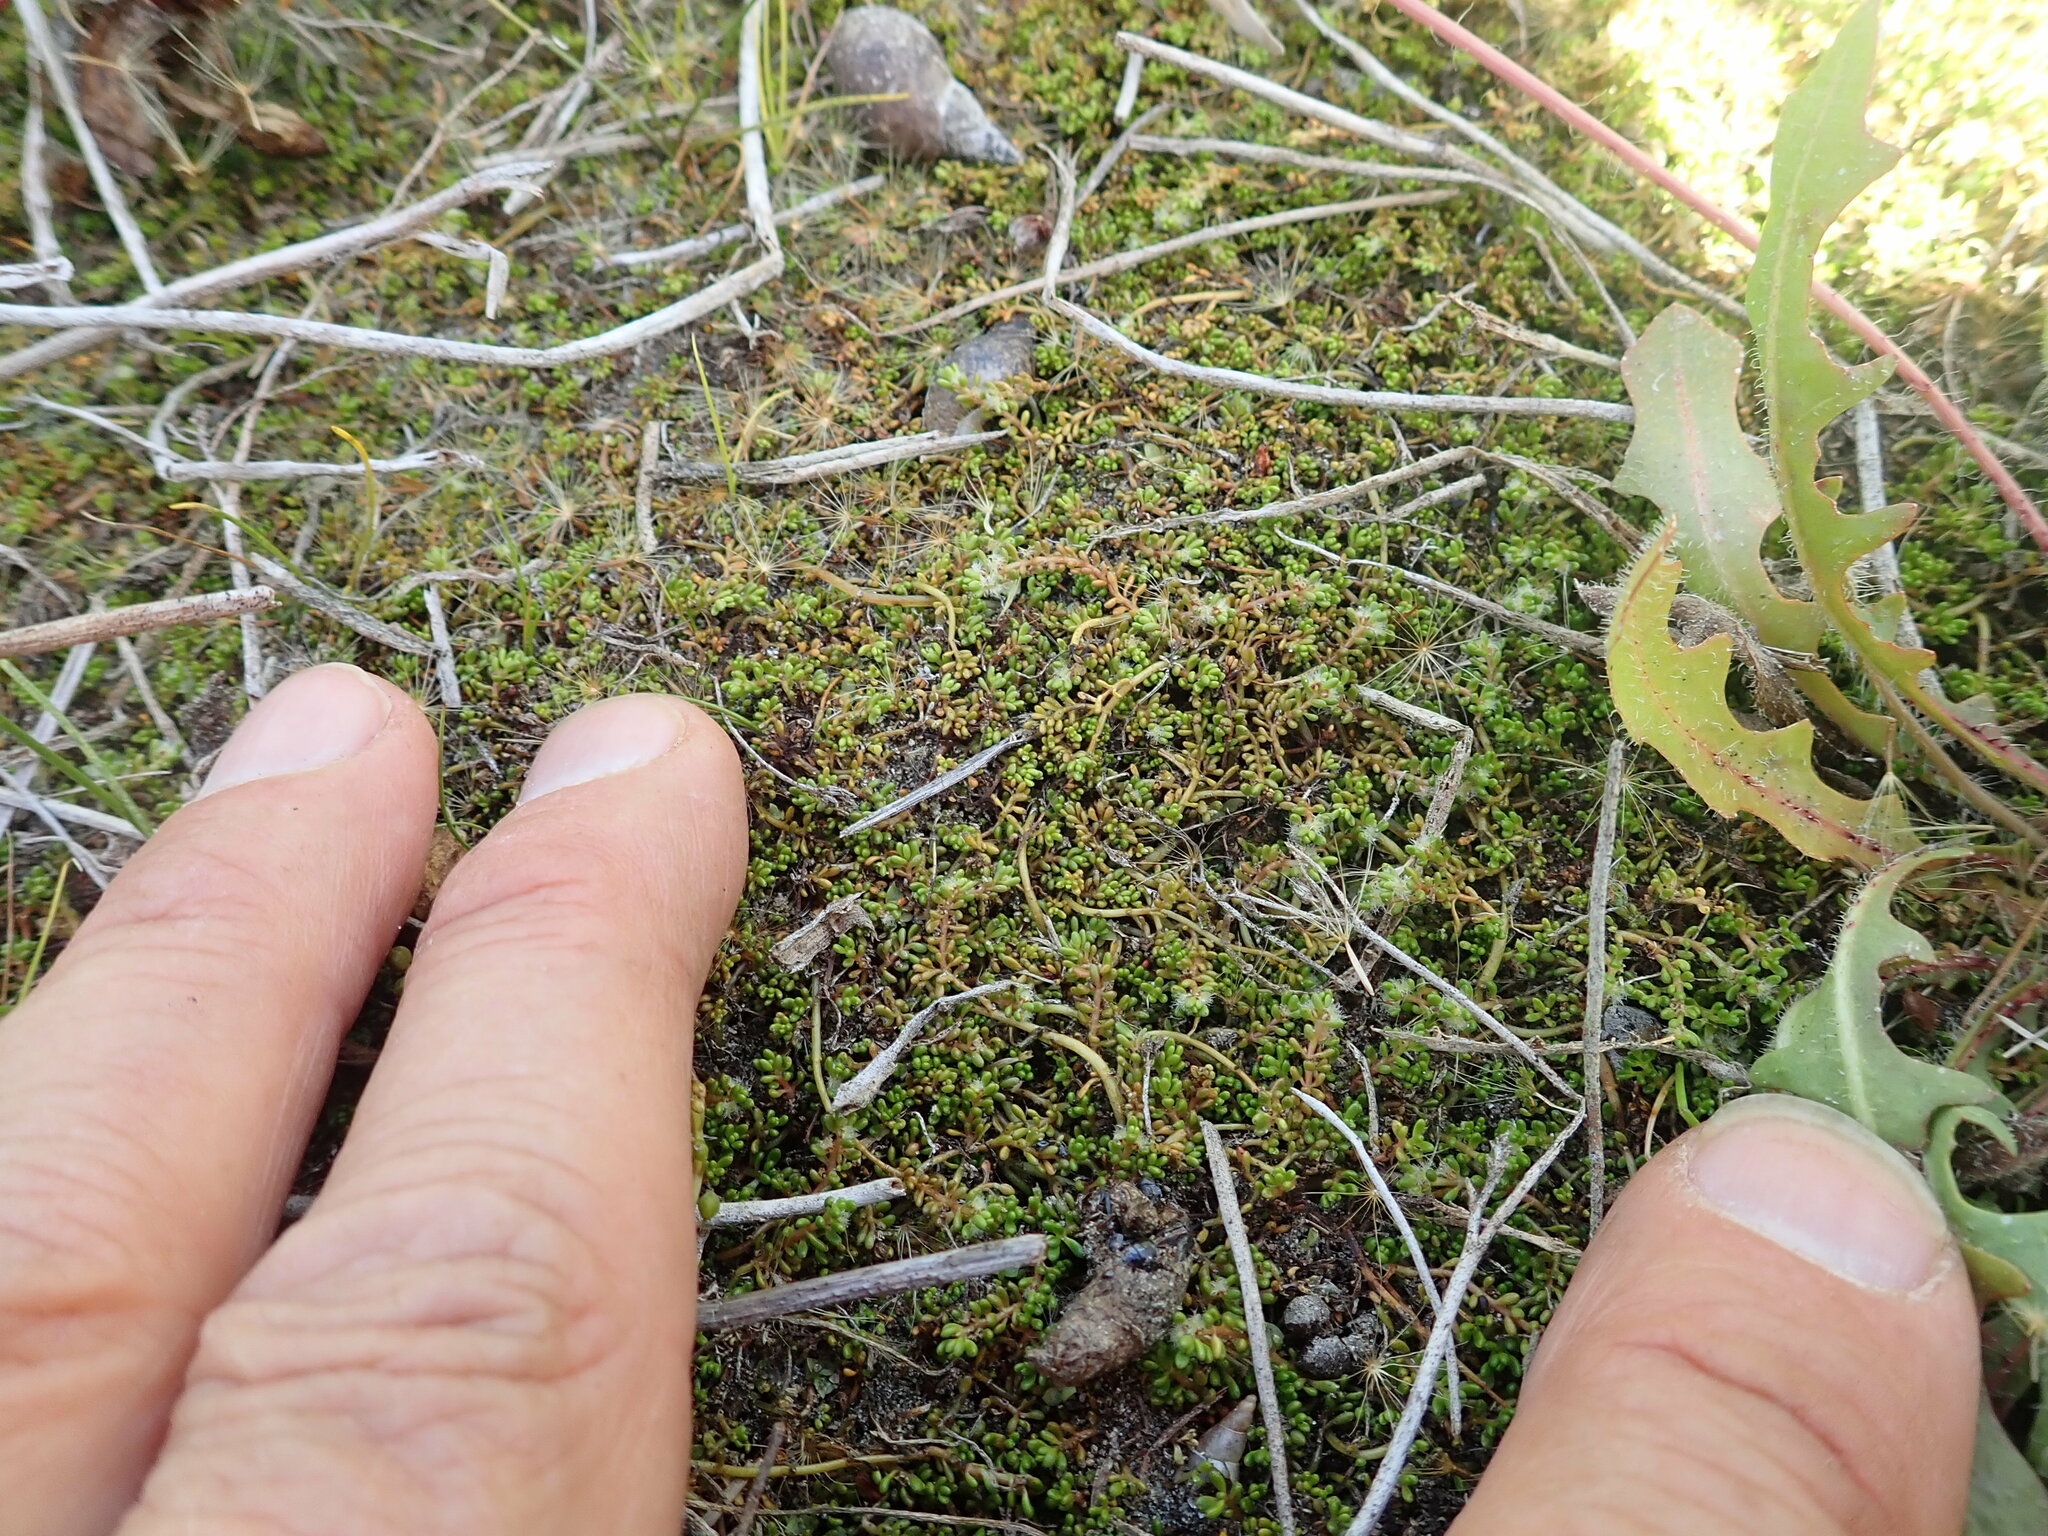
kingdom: Plantae
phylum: Tracheophyta
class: Magnoliopsida
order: Saxifragales
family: Haloragaceae
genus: Myriophyllum
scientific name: Myriophyllum votschii
